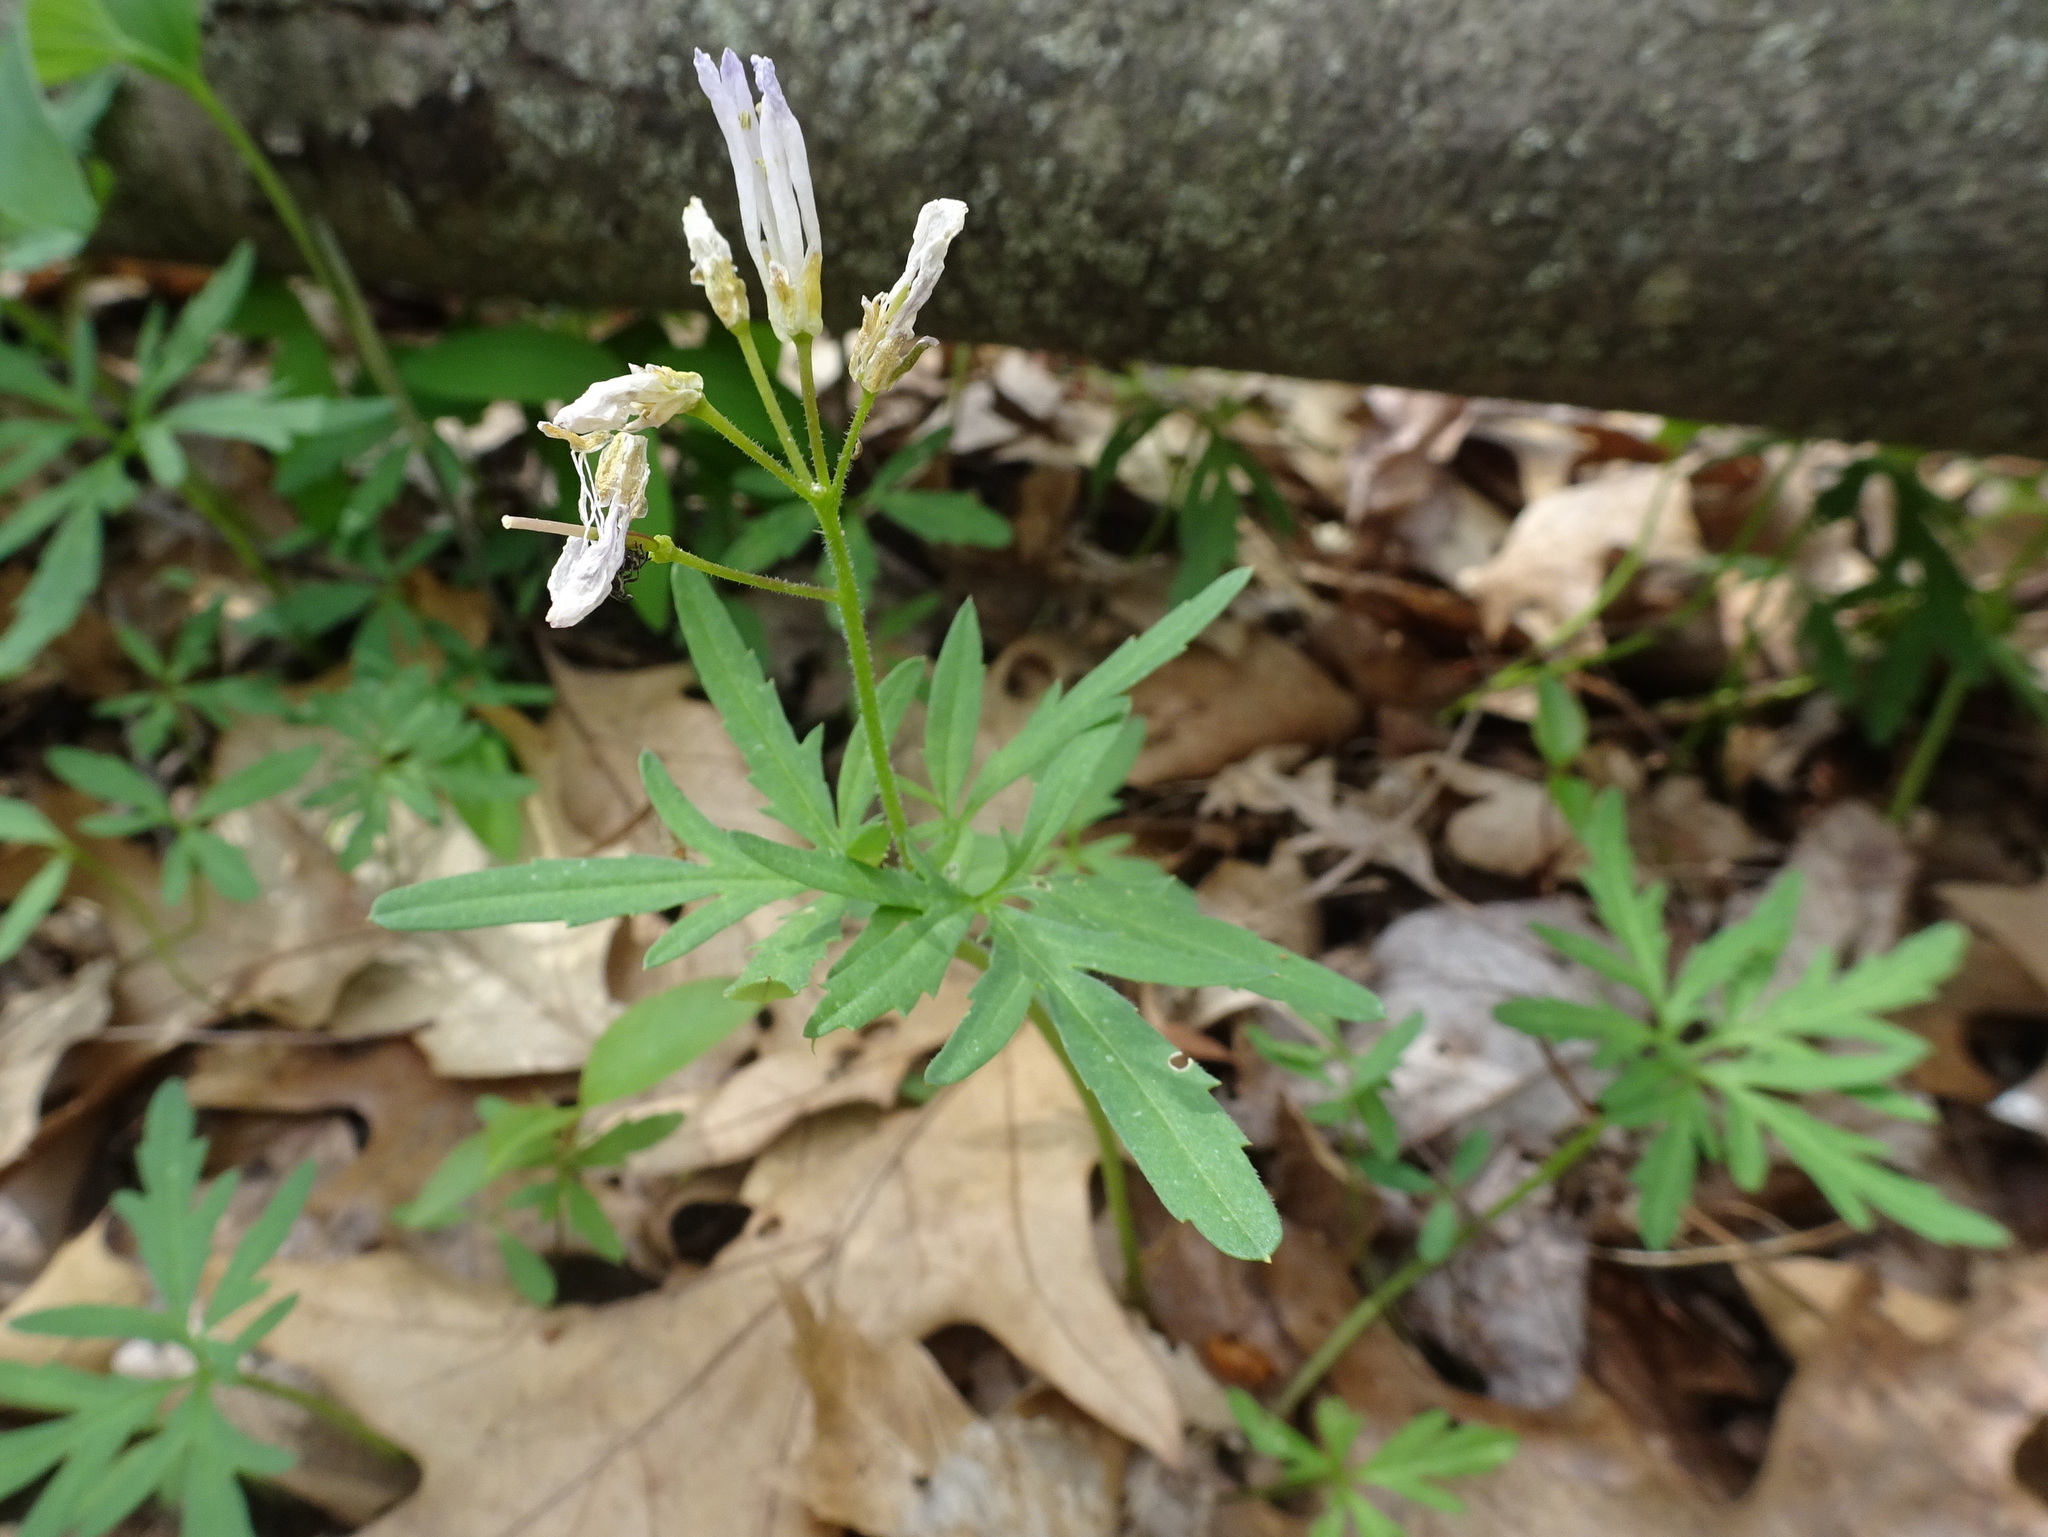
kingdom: Plantae
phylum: Tracheophyta
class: Magnoliopsida
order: Brassicales
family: Brassicaceae
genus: Cardamine
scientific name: Cardamine concatenata
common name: Cut-leaf toothcup
